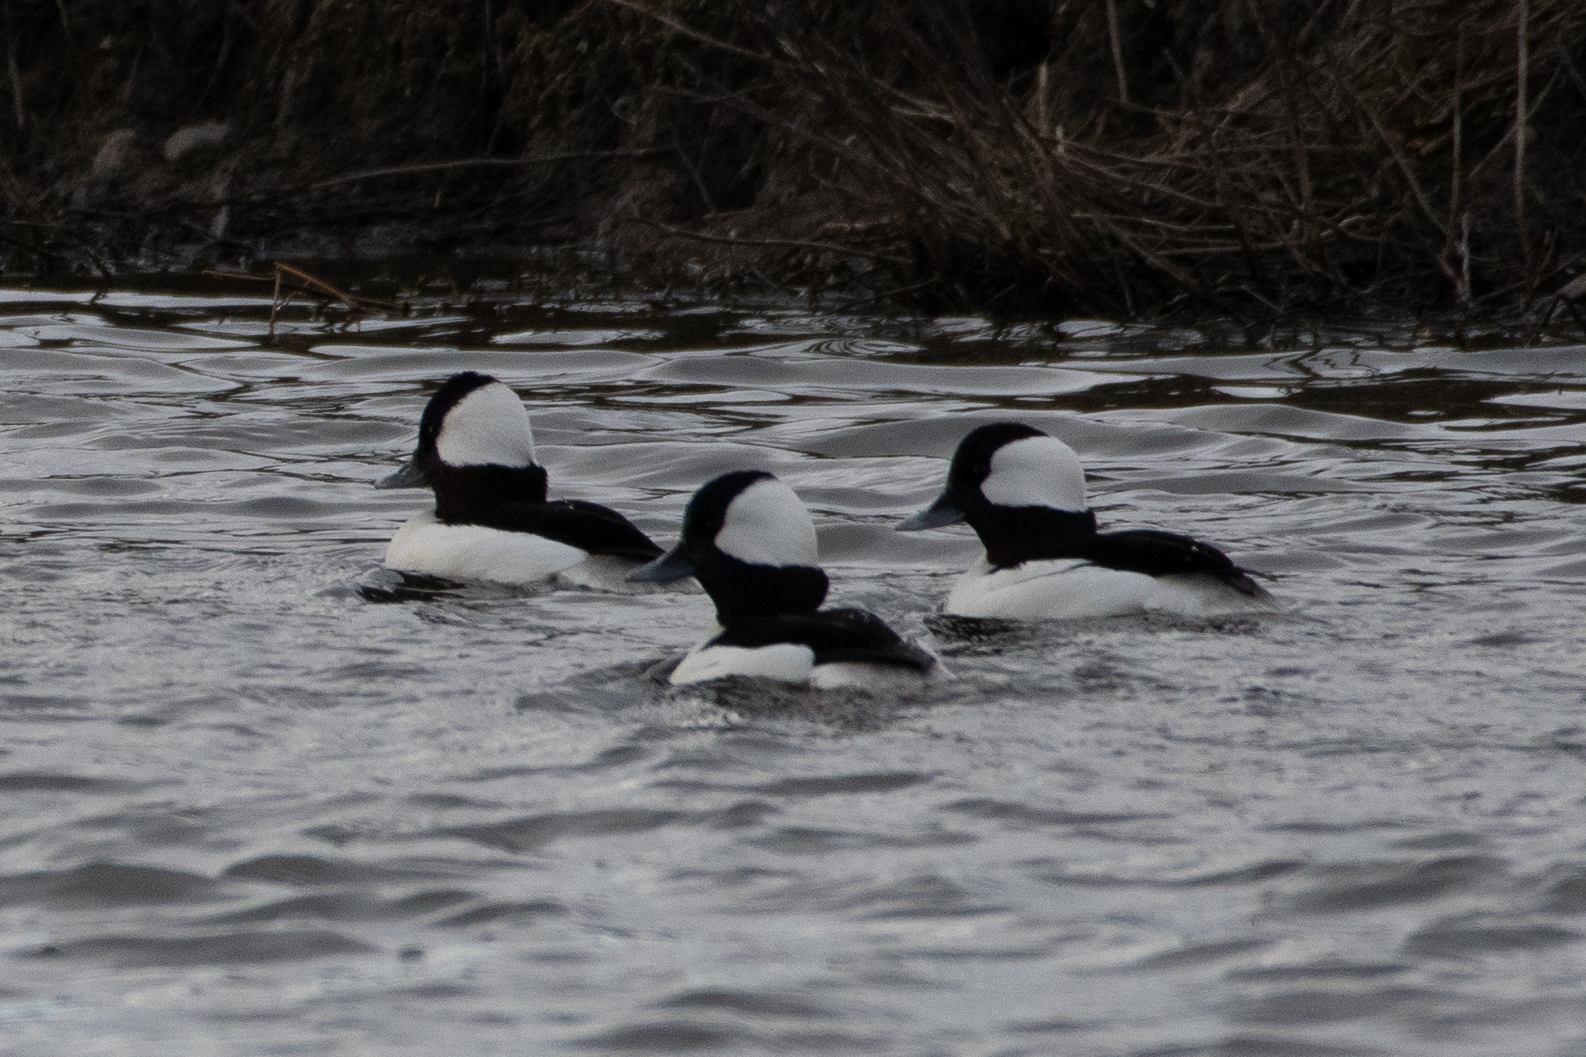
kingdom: Animalia
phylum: Chordata
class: Aves
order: Anseriformes
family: Anatidae
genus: Bucephala
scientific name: Bucephala albeola
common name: Bufflehead
